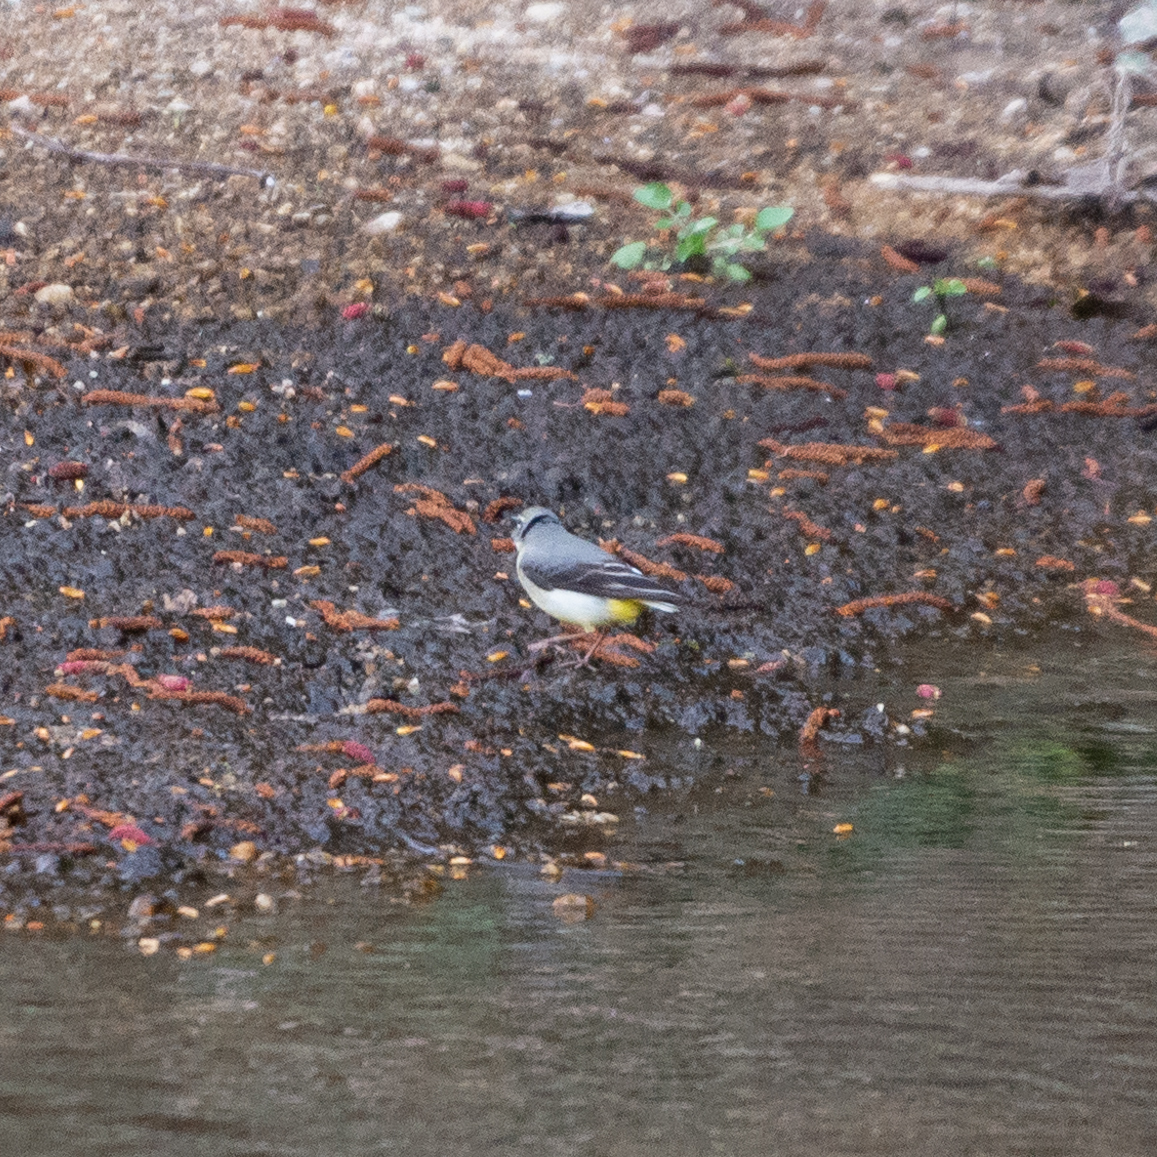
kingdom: Animalia
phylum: Chordata
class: Aves
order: Passeriformes
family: Motacillidae
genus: Motacilla
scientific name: Motacilla cinerea
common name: Grey wagtail
